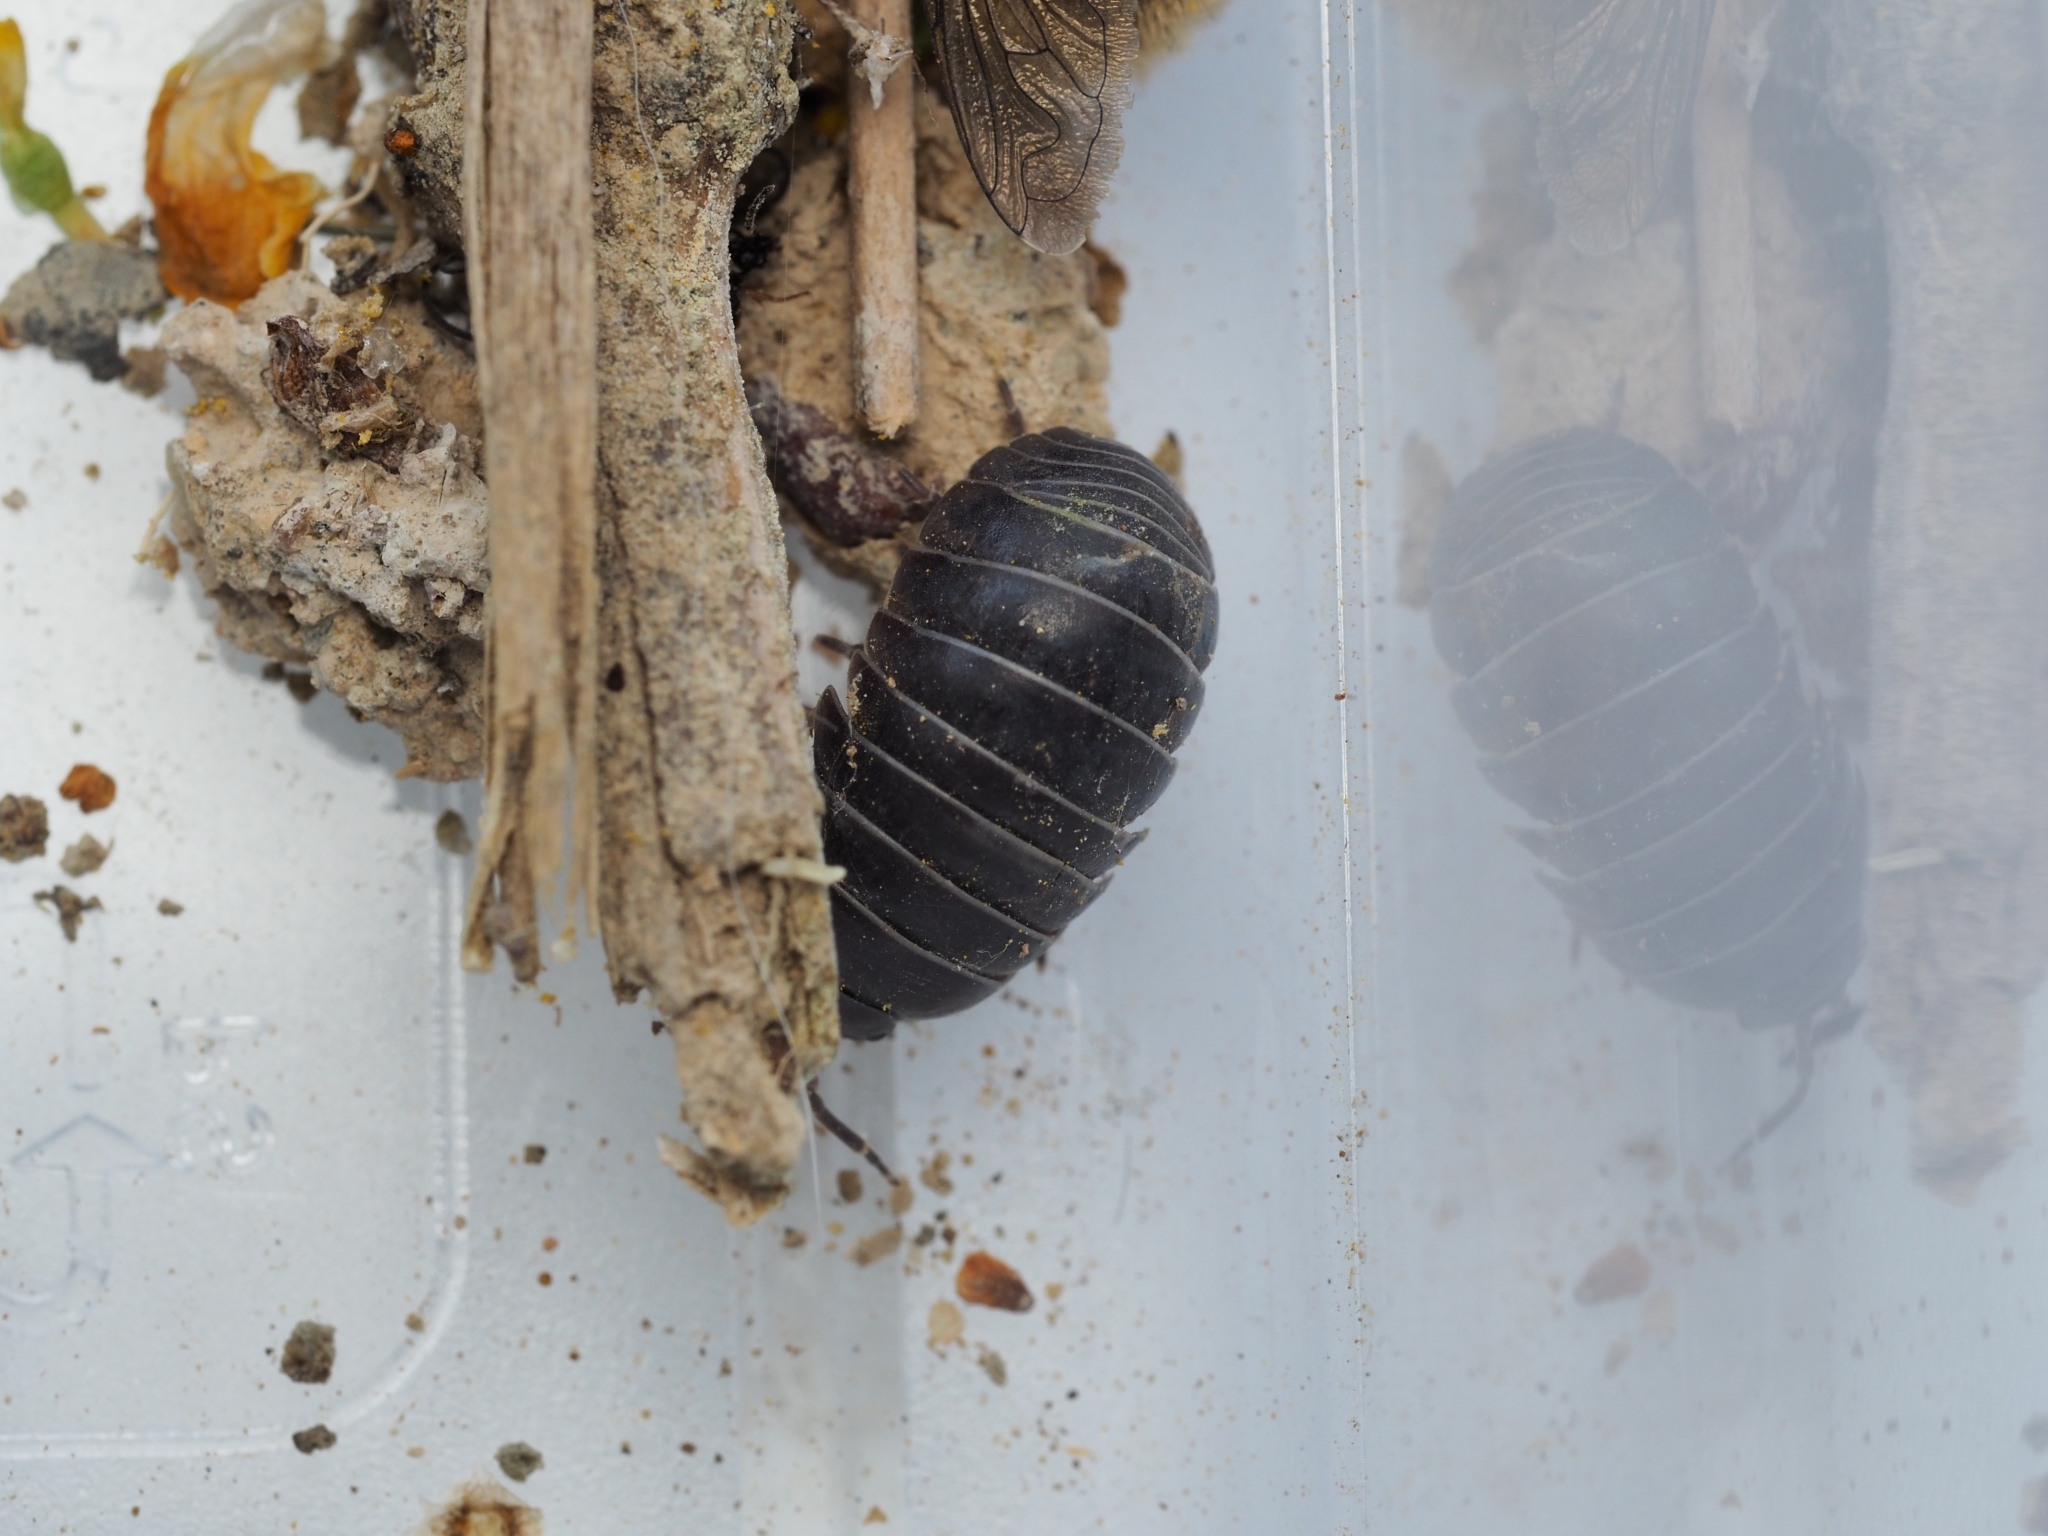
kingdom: Animalia
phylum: Arthropoda
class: Malacostraca
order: Isopoda
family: Armadillidiidae
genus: Armadillidium
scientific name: Armadillidium vulgare
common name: Common pill woodlouse
